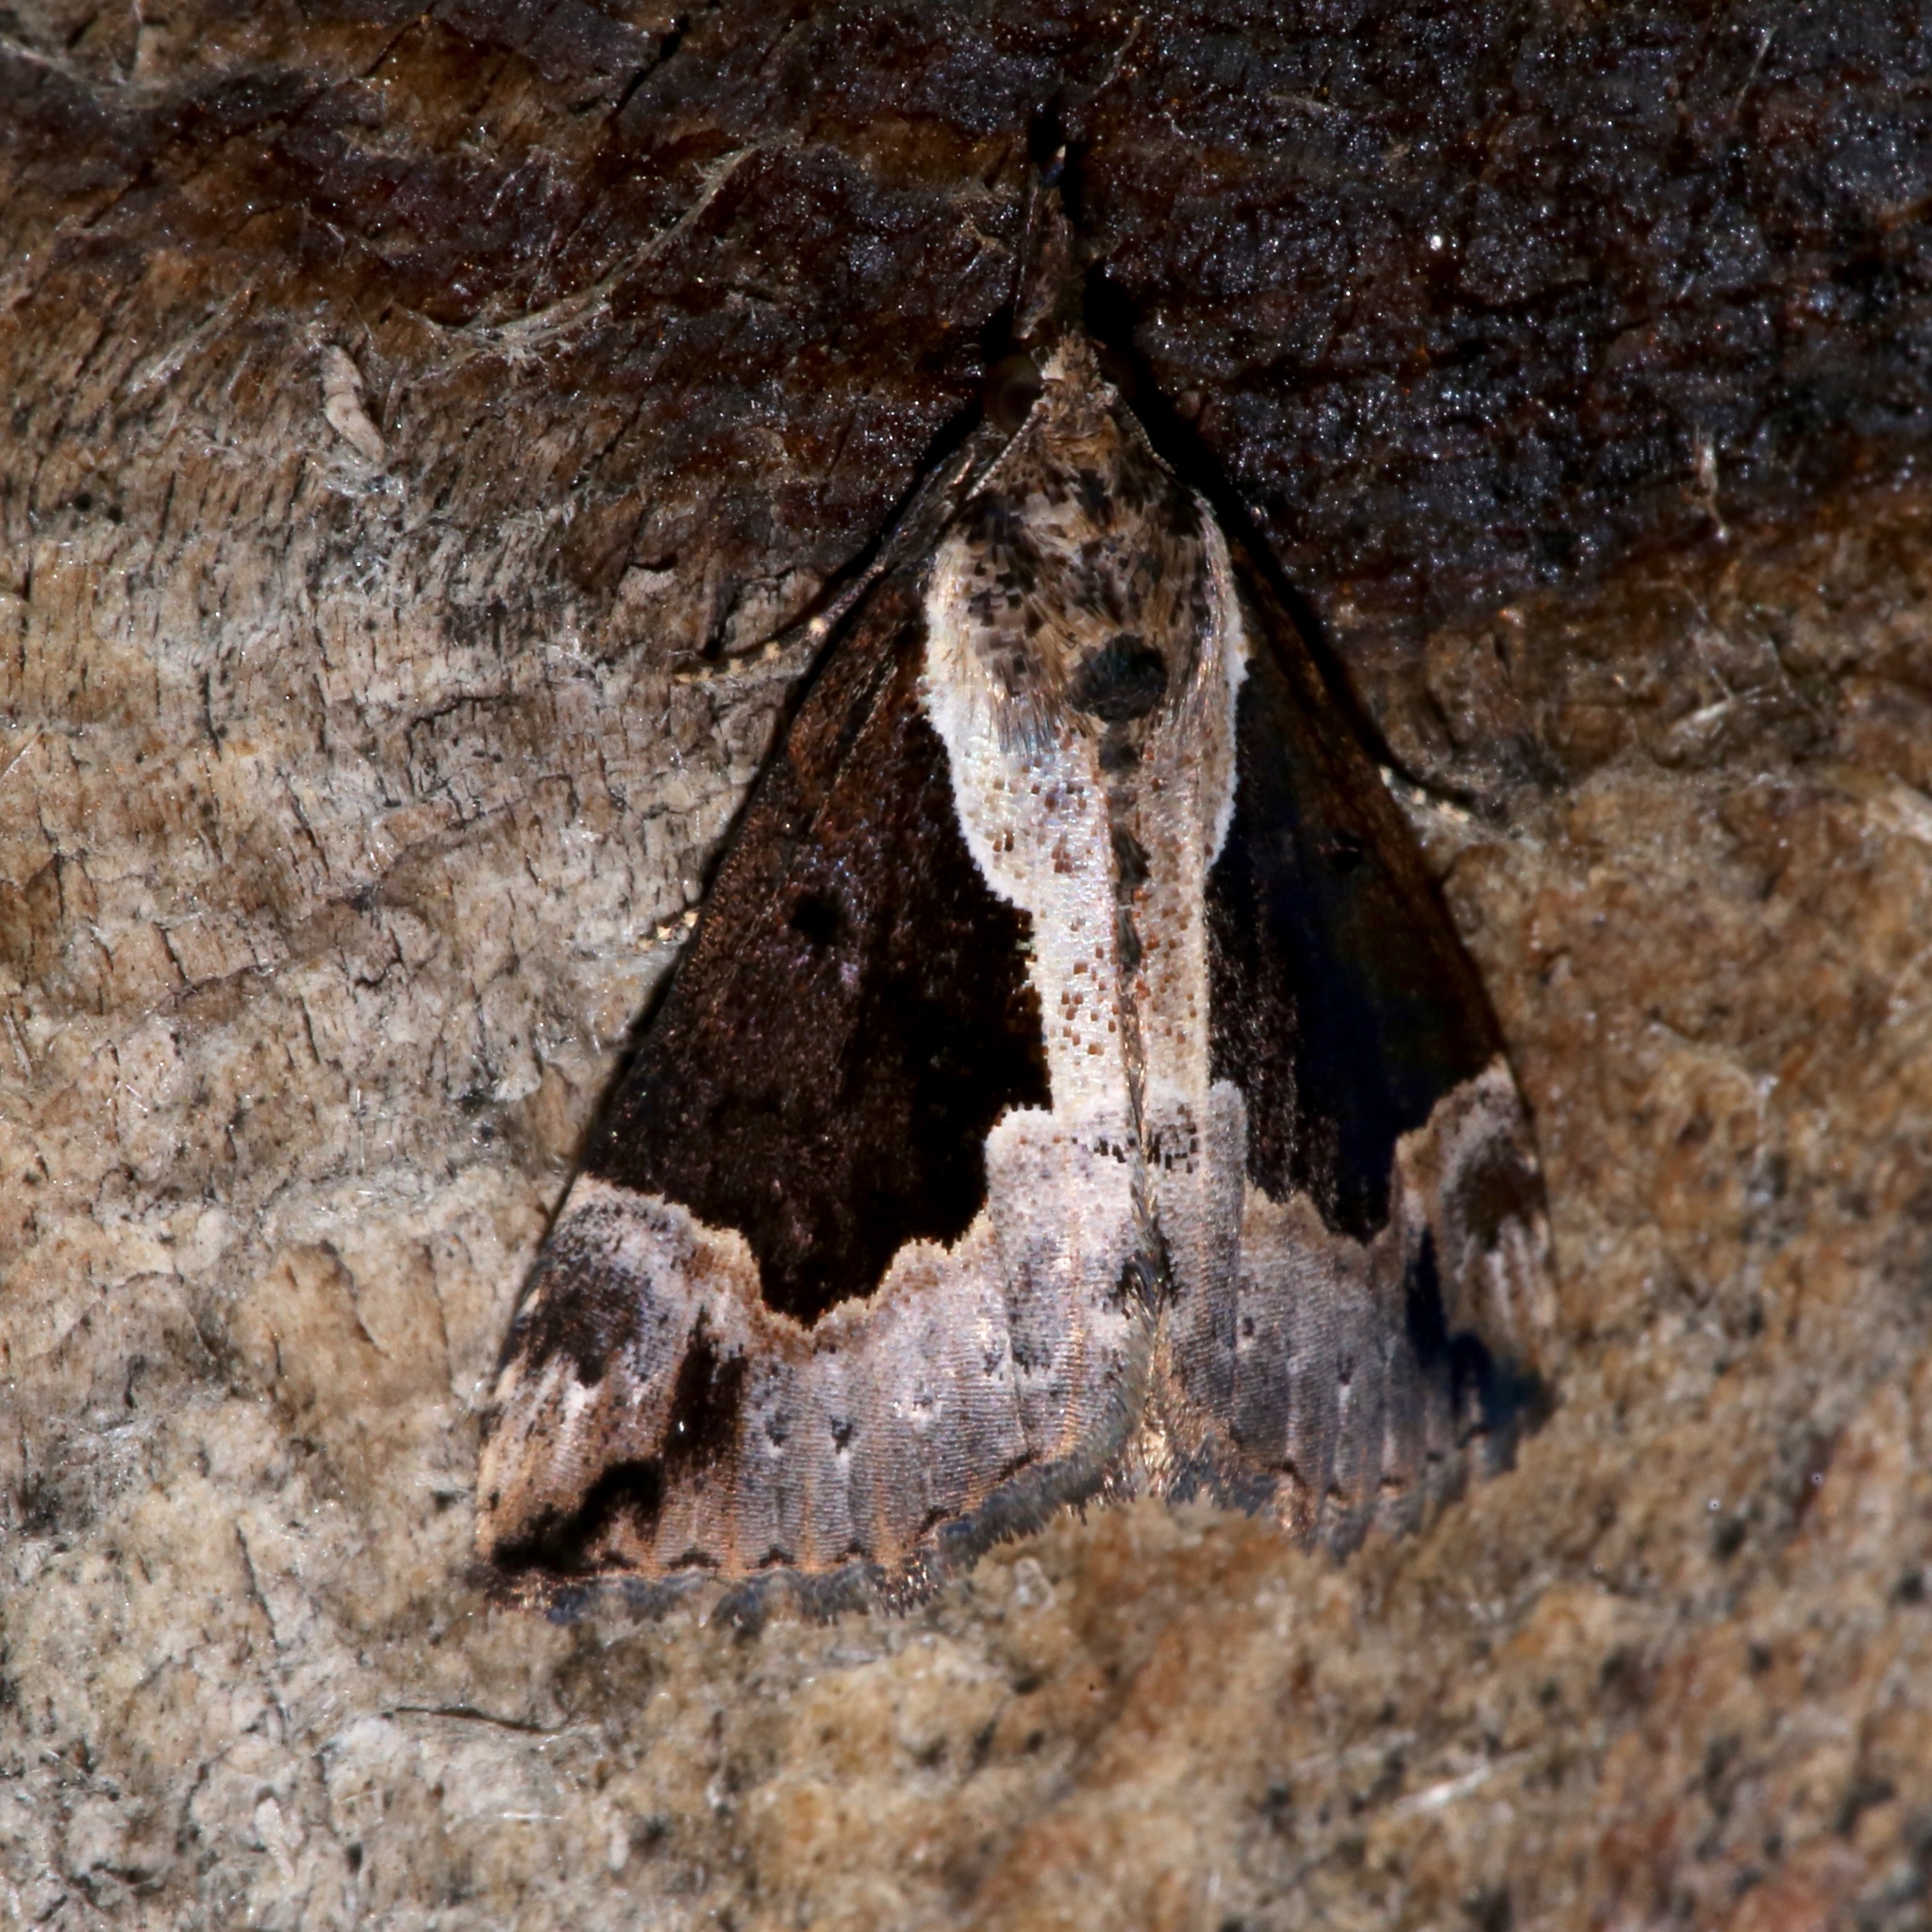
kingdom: Animalia
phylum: Arthropoda
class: Insecta
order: Lepidoptera
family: Erebidae
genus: Hypena
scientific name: Hypena baltimoralis
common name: Baltimore snout
